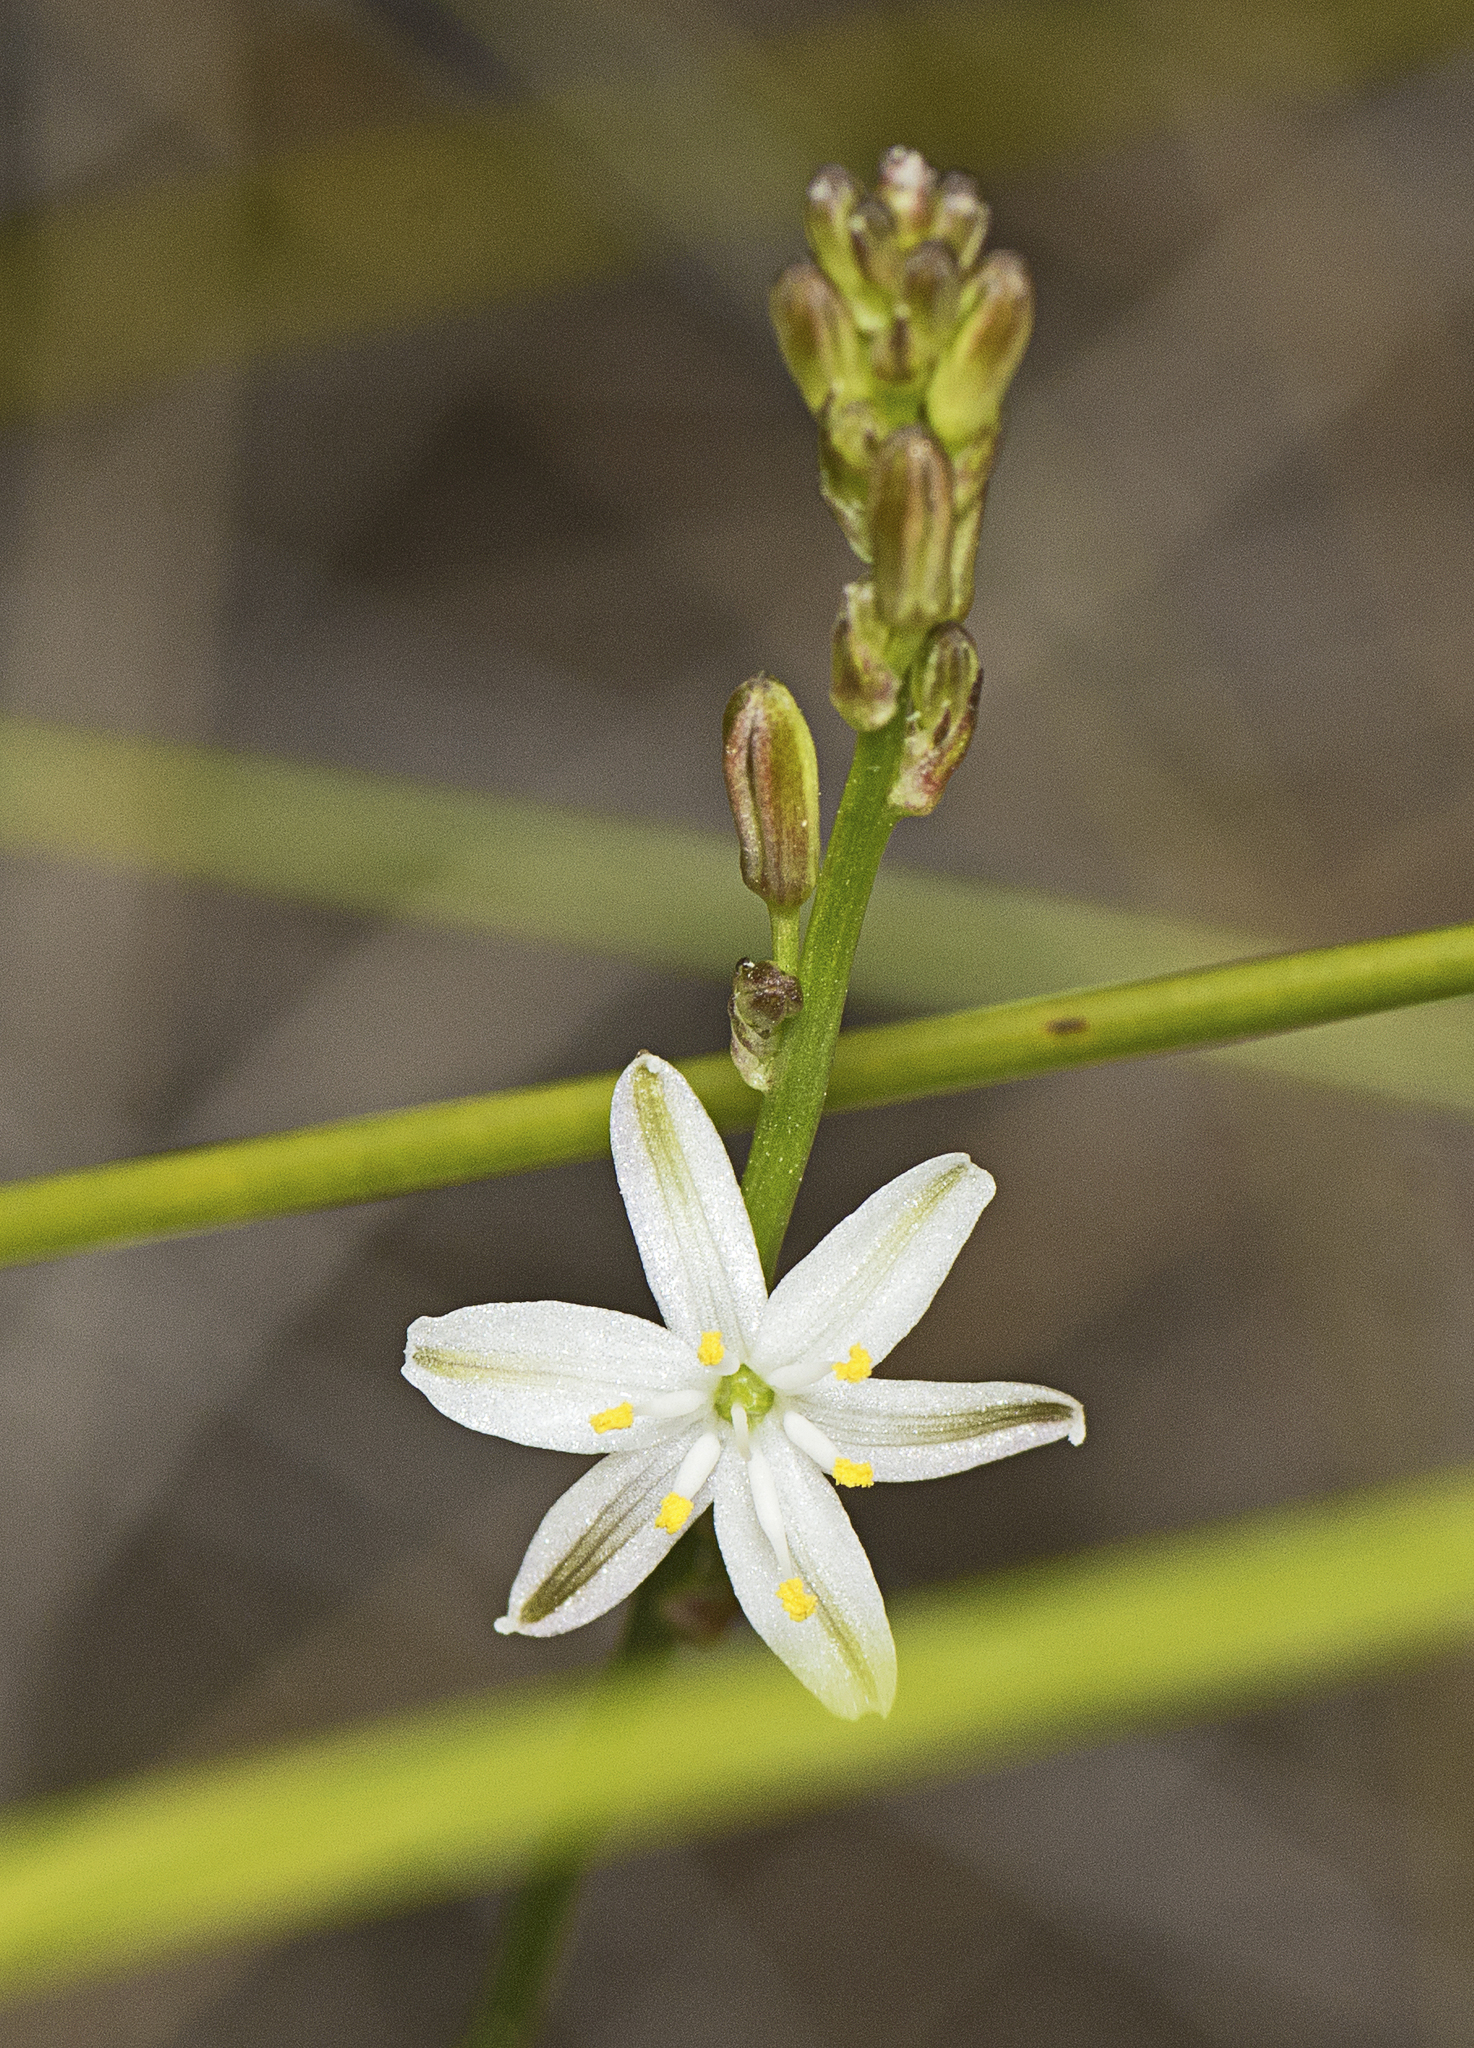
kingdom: Plantae
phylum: Tracheophyta
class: Liliopsida
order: Asparagales
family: Asphodelaceae
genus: Caesia
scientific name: Caesia parviflora
